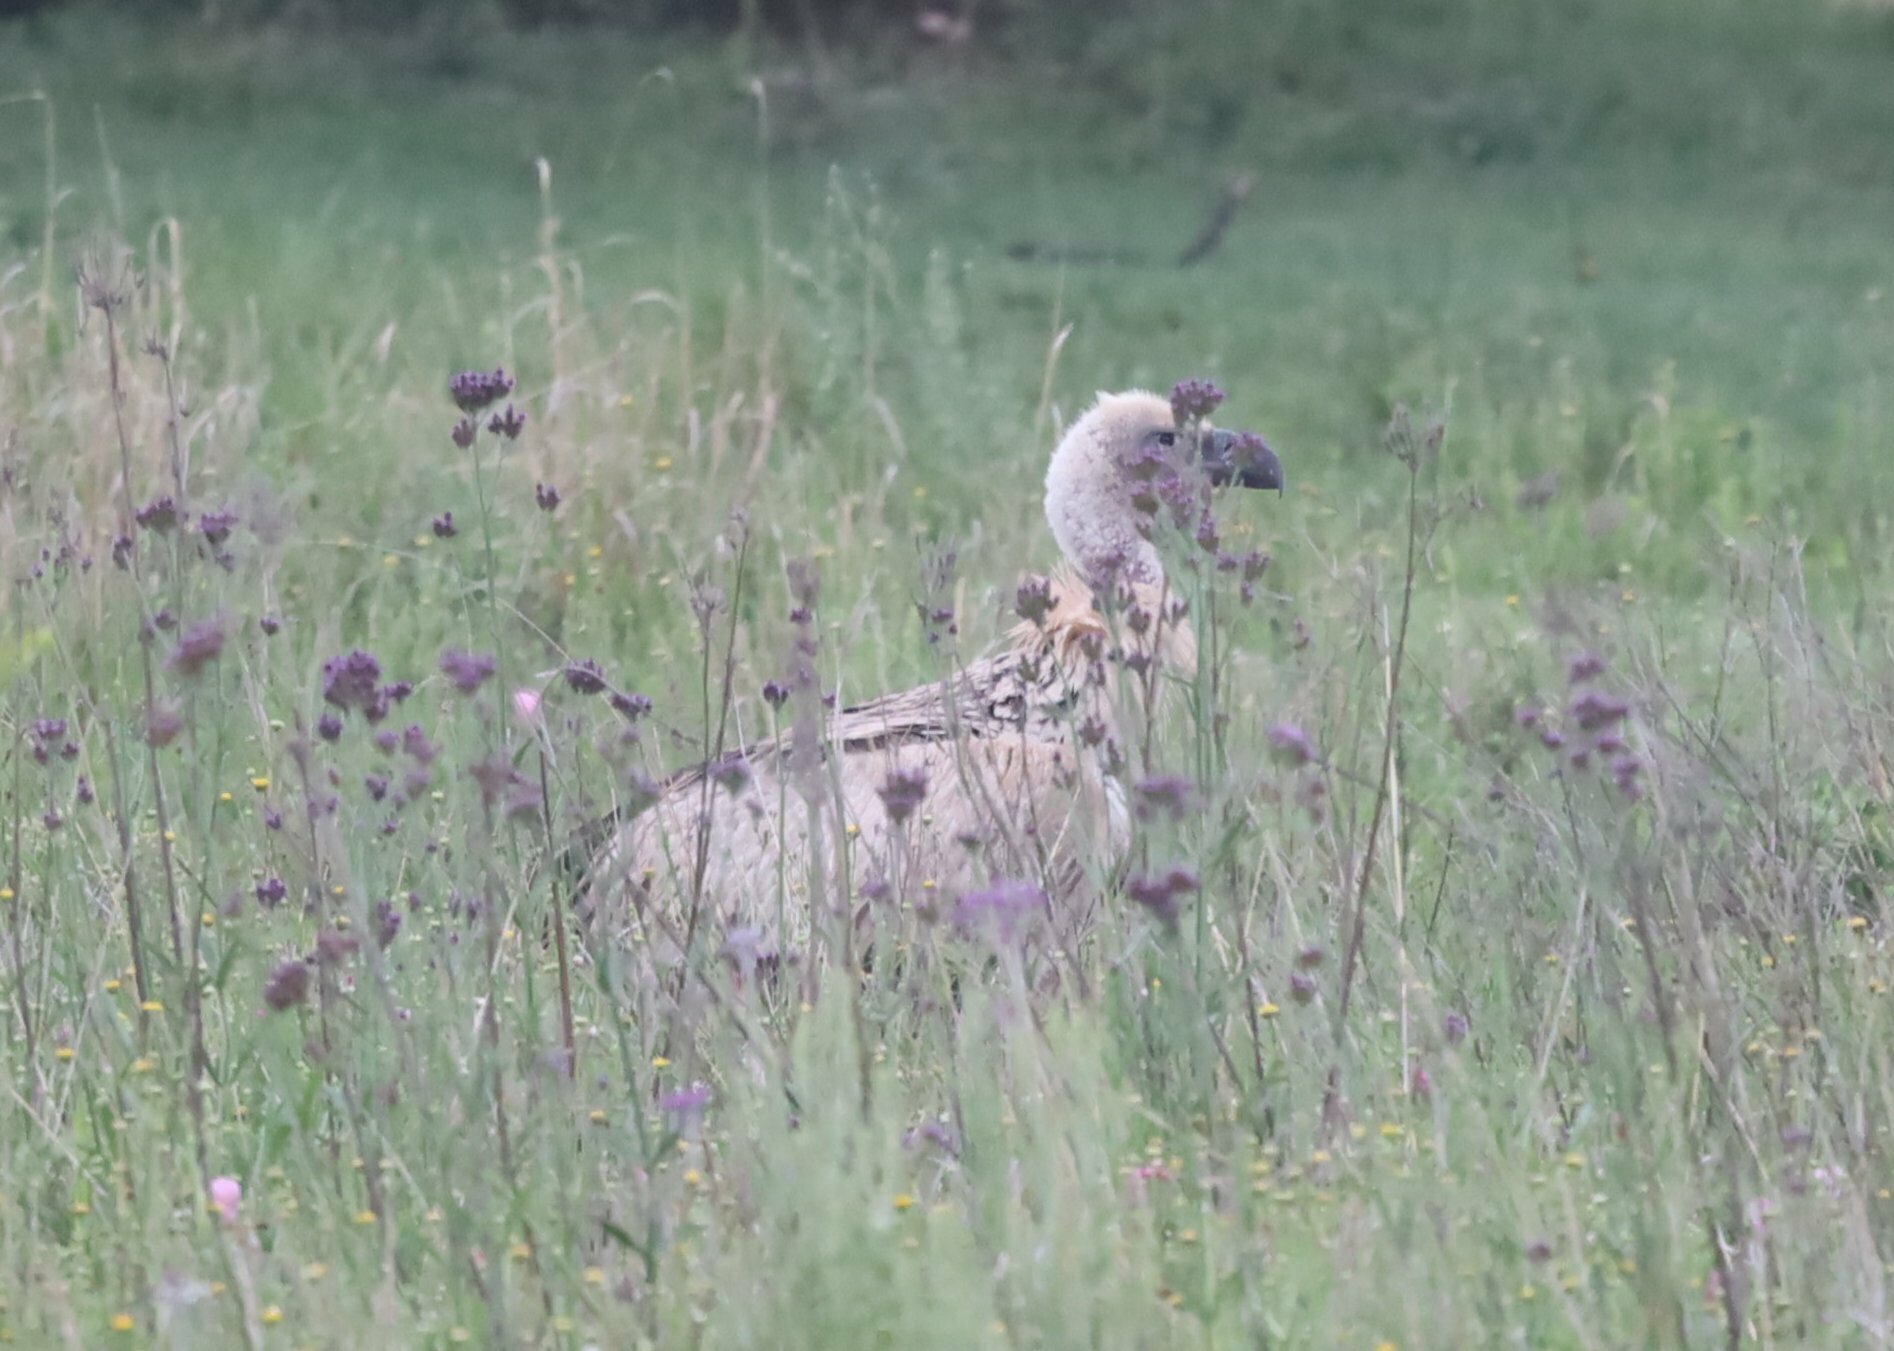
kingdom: Animalia
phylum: Chordata
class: Aves
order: Accipitriformes
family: Accipitridae
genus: Gyps
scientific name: Gyps africanus
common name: White-backed vulture
